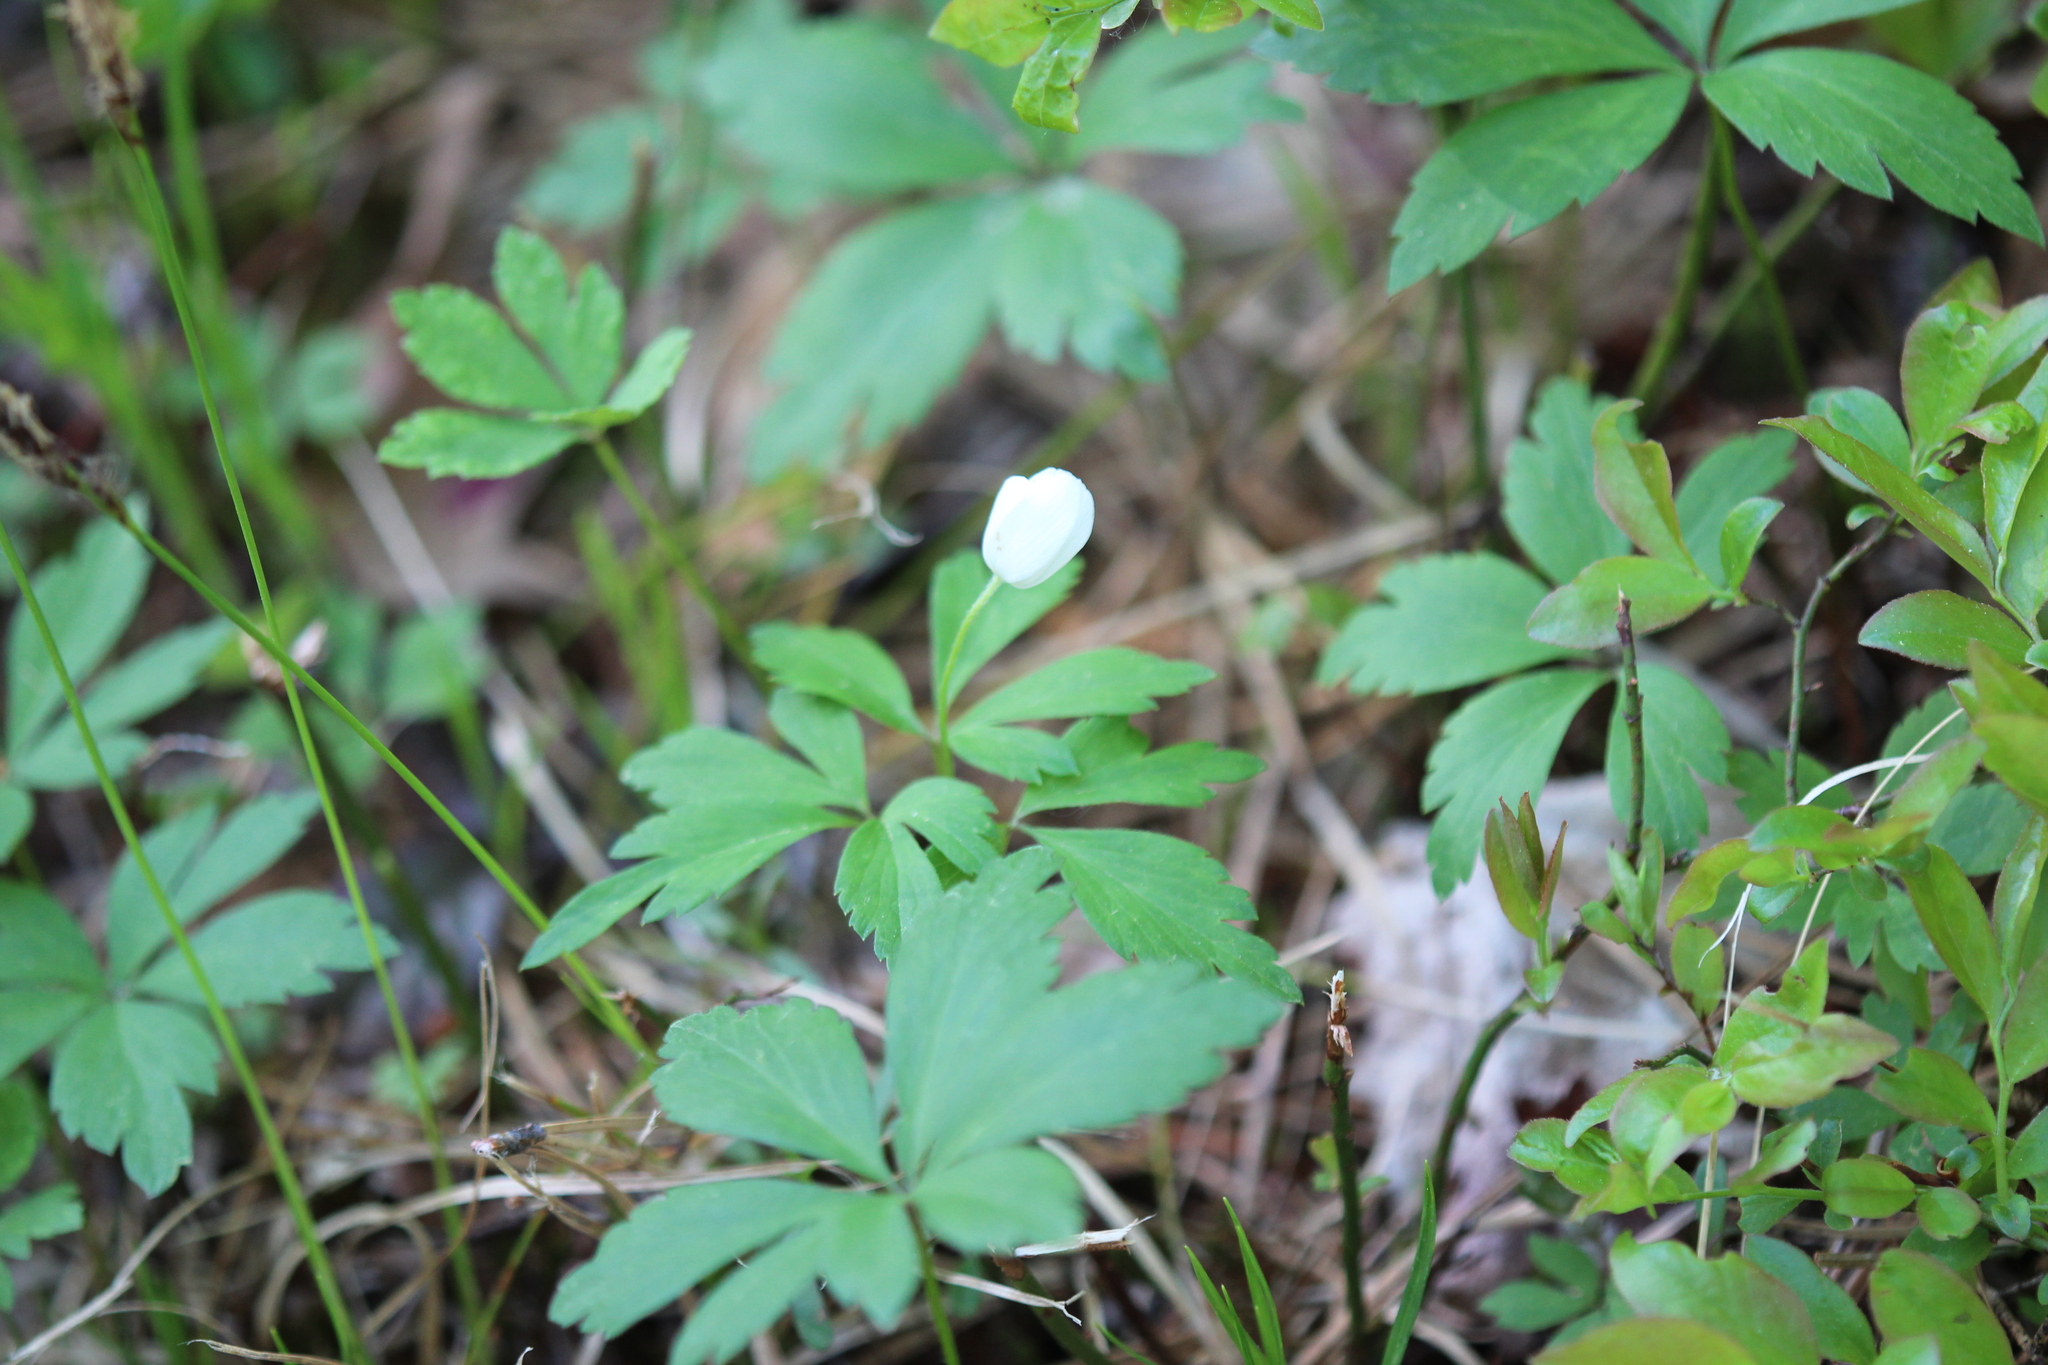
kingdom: Plantae
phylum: Tracheophyta
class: Magnoliopsida
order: Ranunculales
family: Ranunculaceae
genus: Anemone
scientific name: Anemone quinquefolia
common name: Wood anemone
